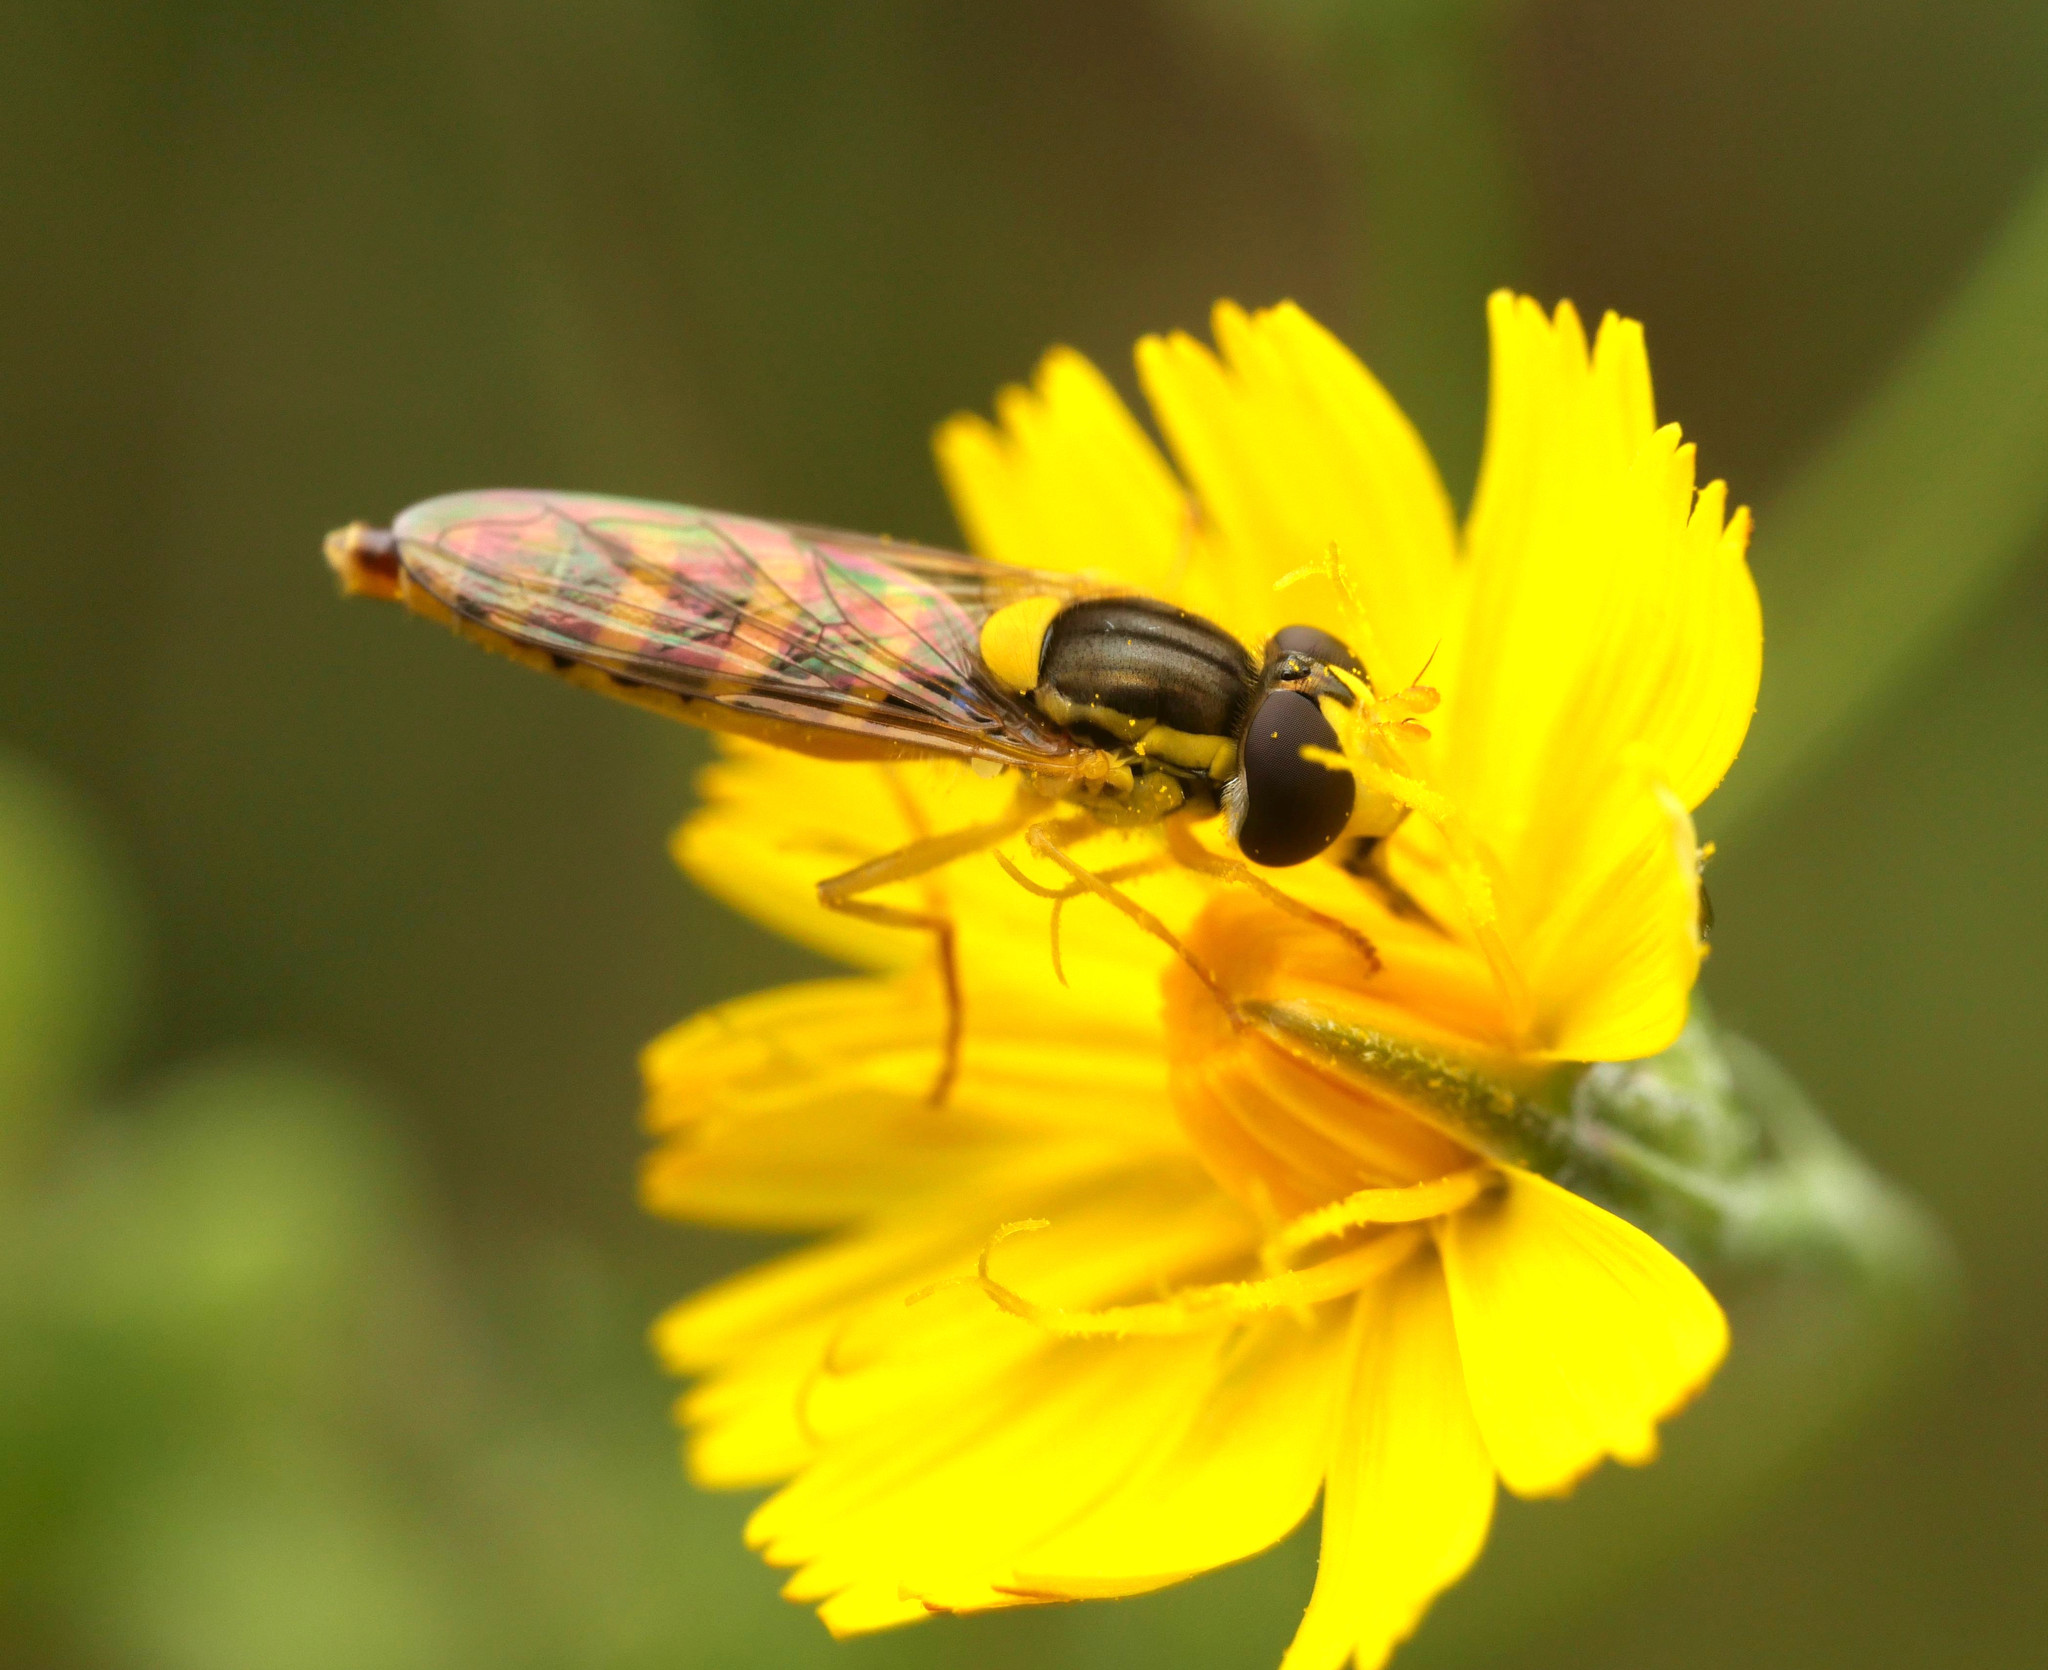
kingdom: Animalia
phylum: Arthropoda
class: Insecta
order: Diptera
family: Syrphidae
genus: Sphaerophoria
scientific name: Sphaerophoria
